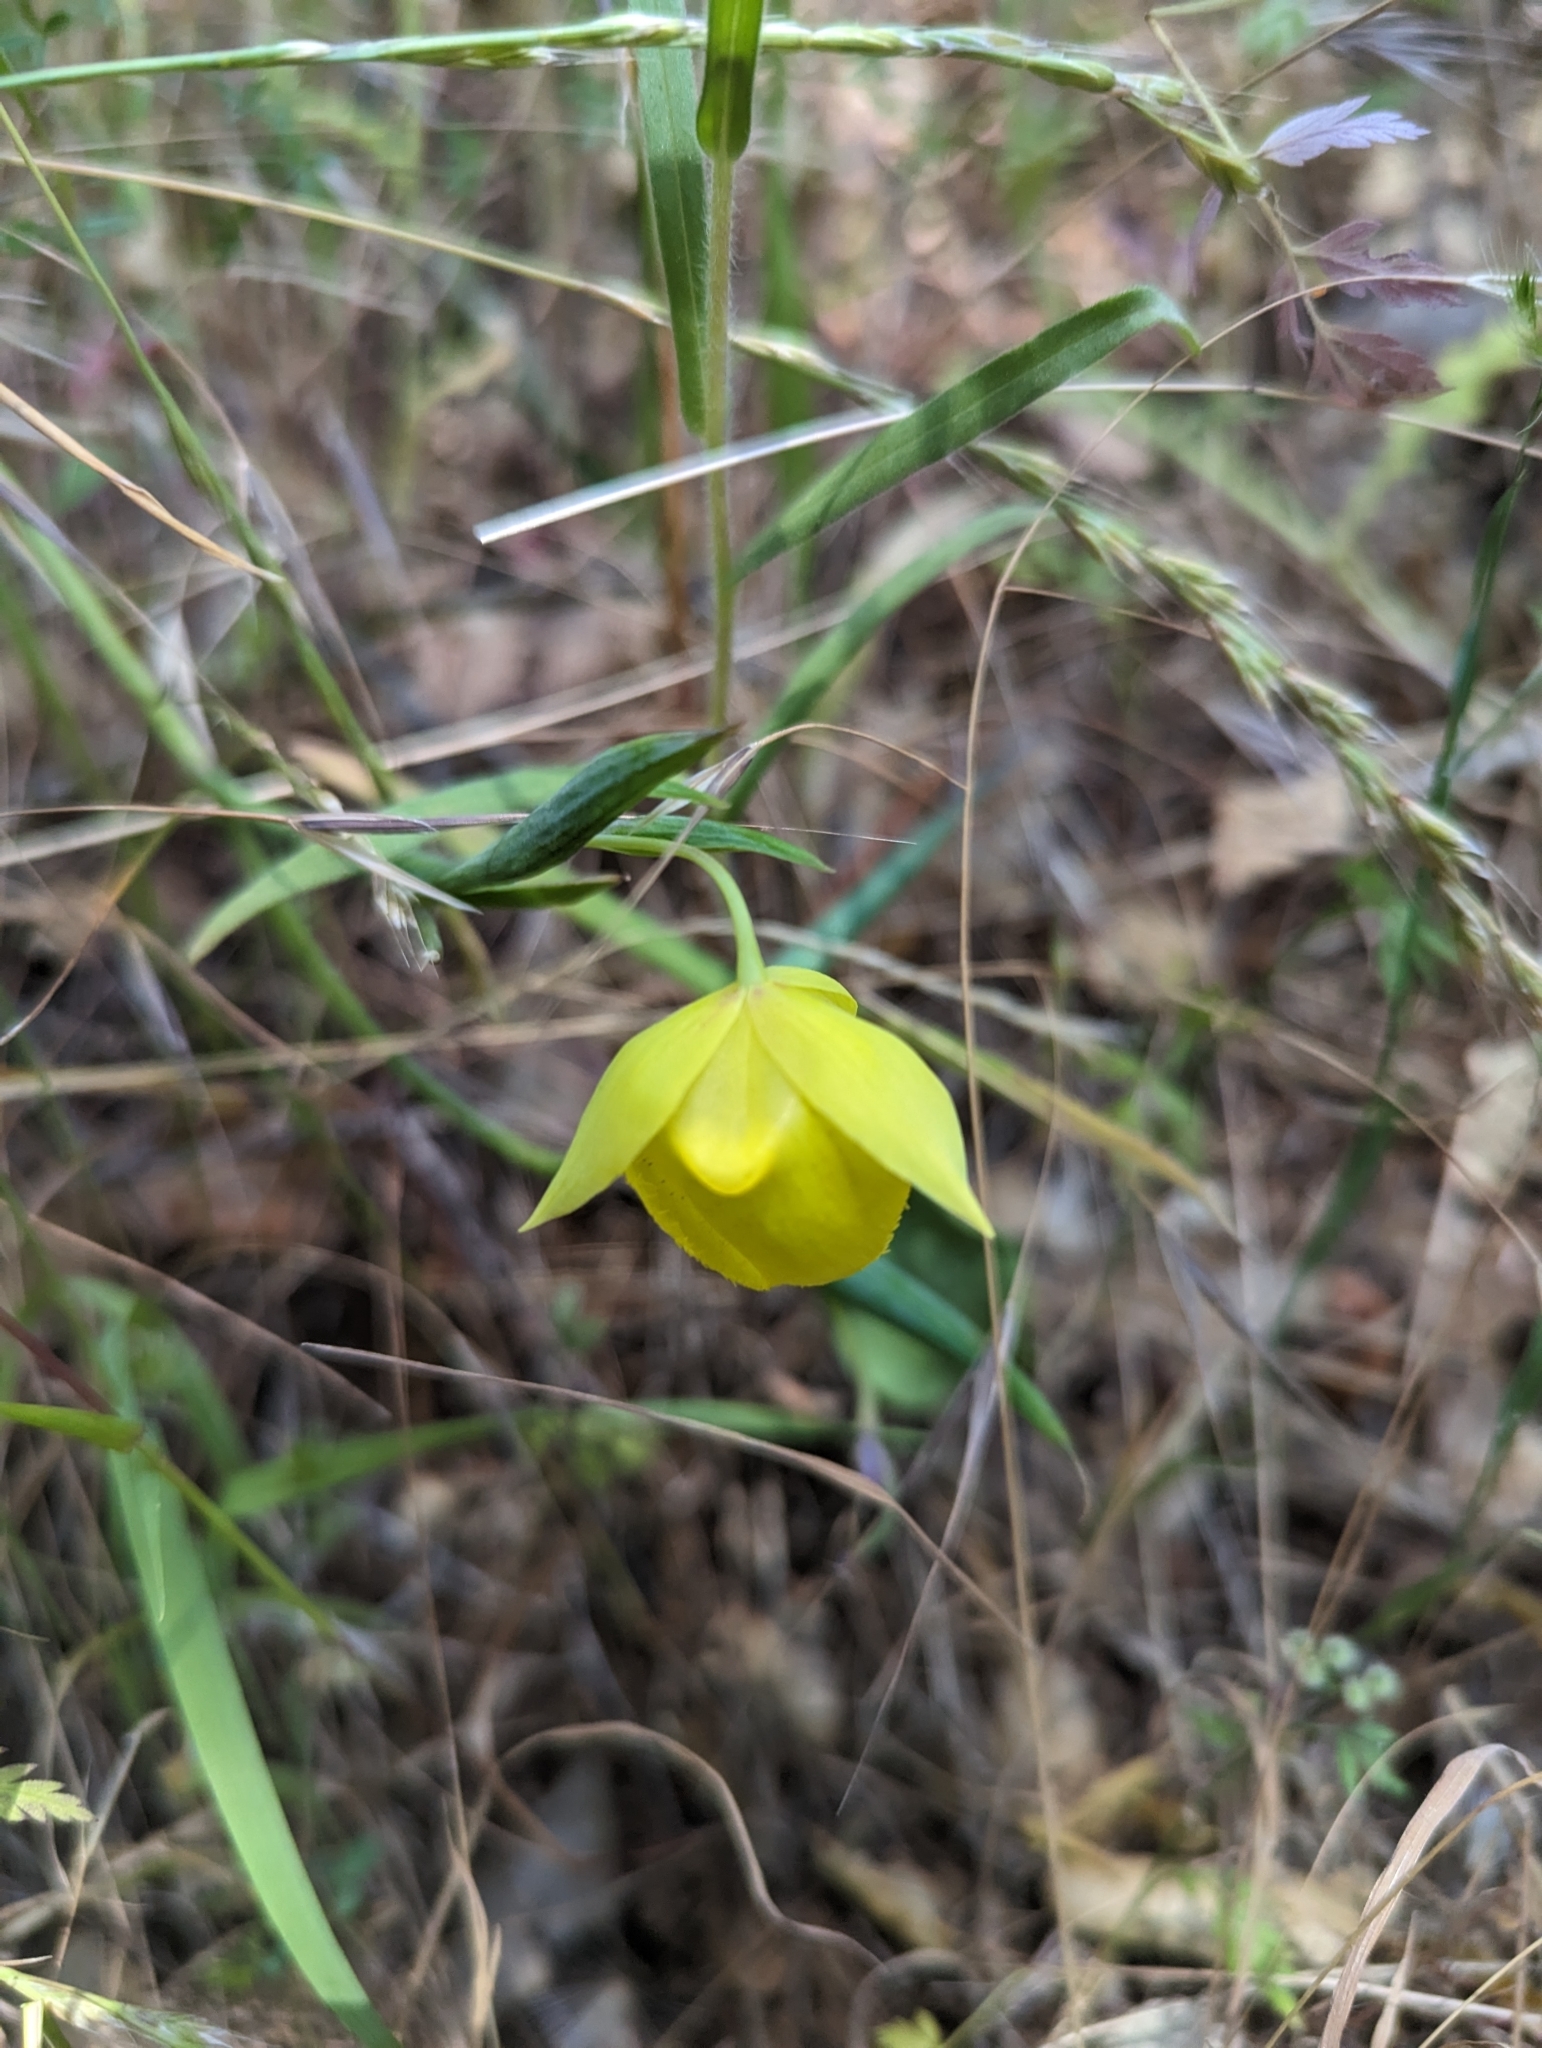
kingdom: Plantae
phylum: Tracheophyta
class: Liliopsida
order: Liliales
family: Liliaceae
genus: Calochortus
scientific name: Calochortus pulchellus
